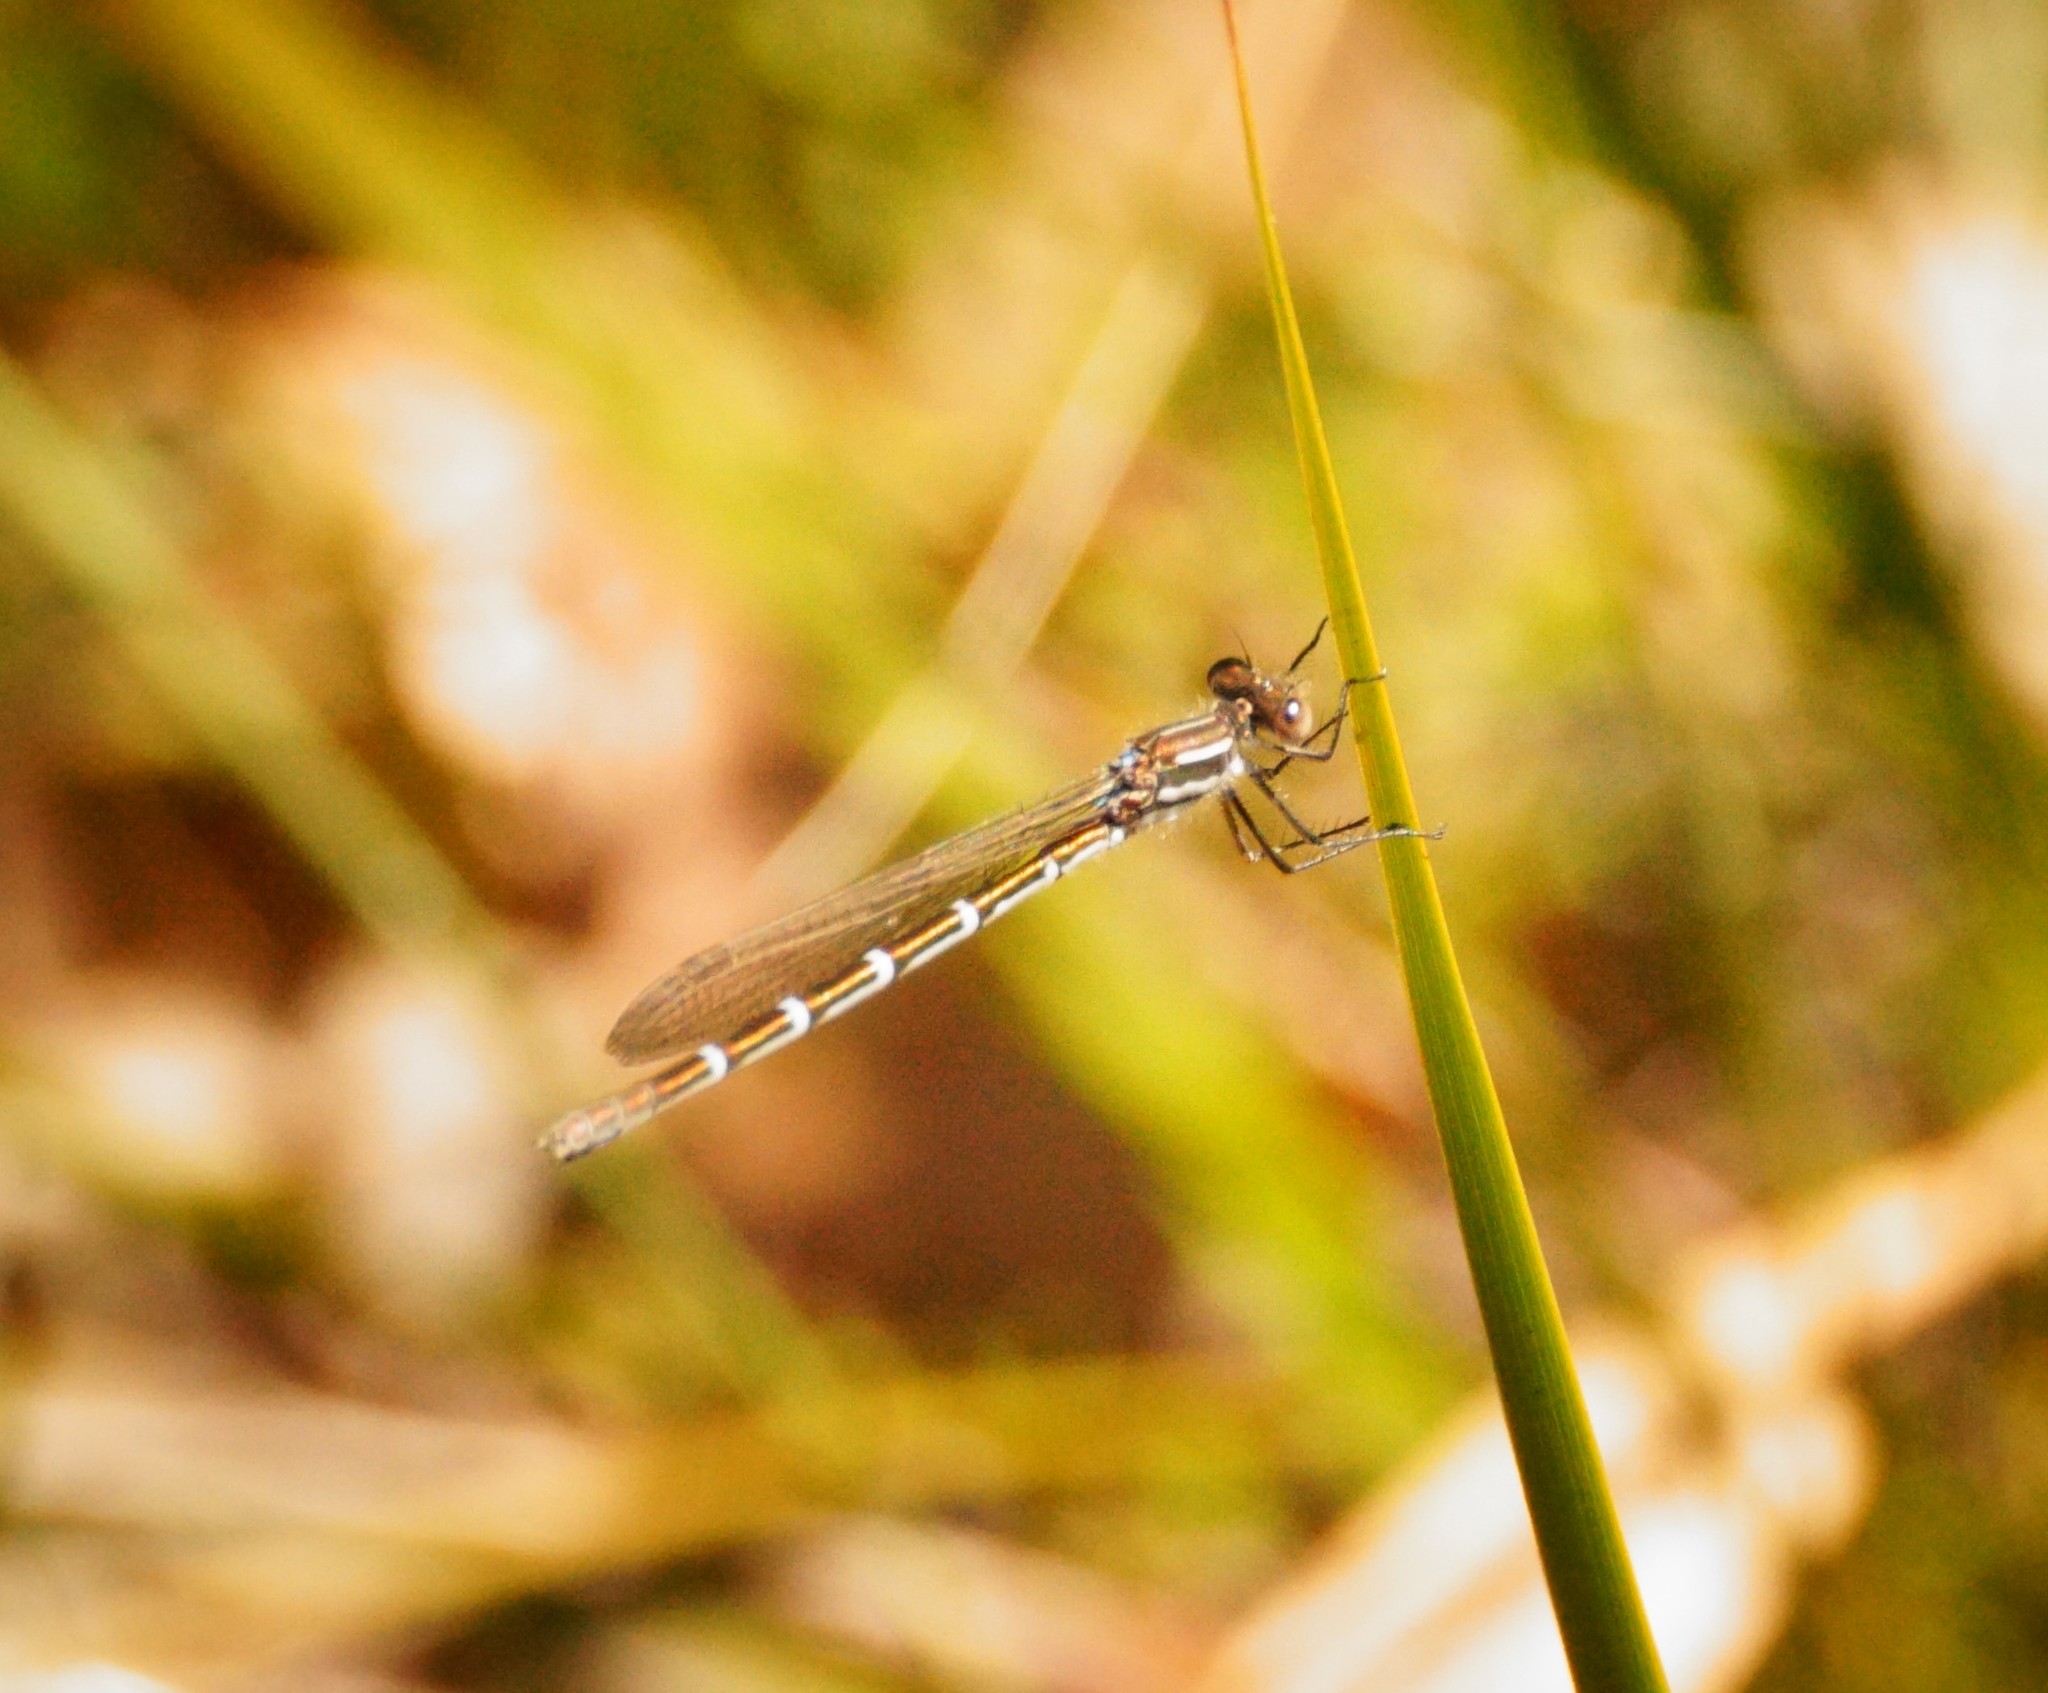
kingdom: Animalia
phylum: Arthropoda
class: Insecta
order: Odonata
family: Lestidae
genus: Austrolestes
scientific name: Austrolestes annulosus
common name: Blue ringtail
